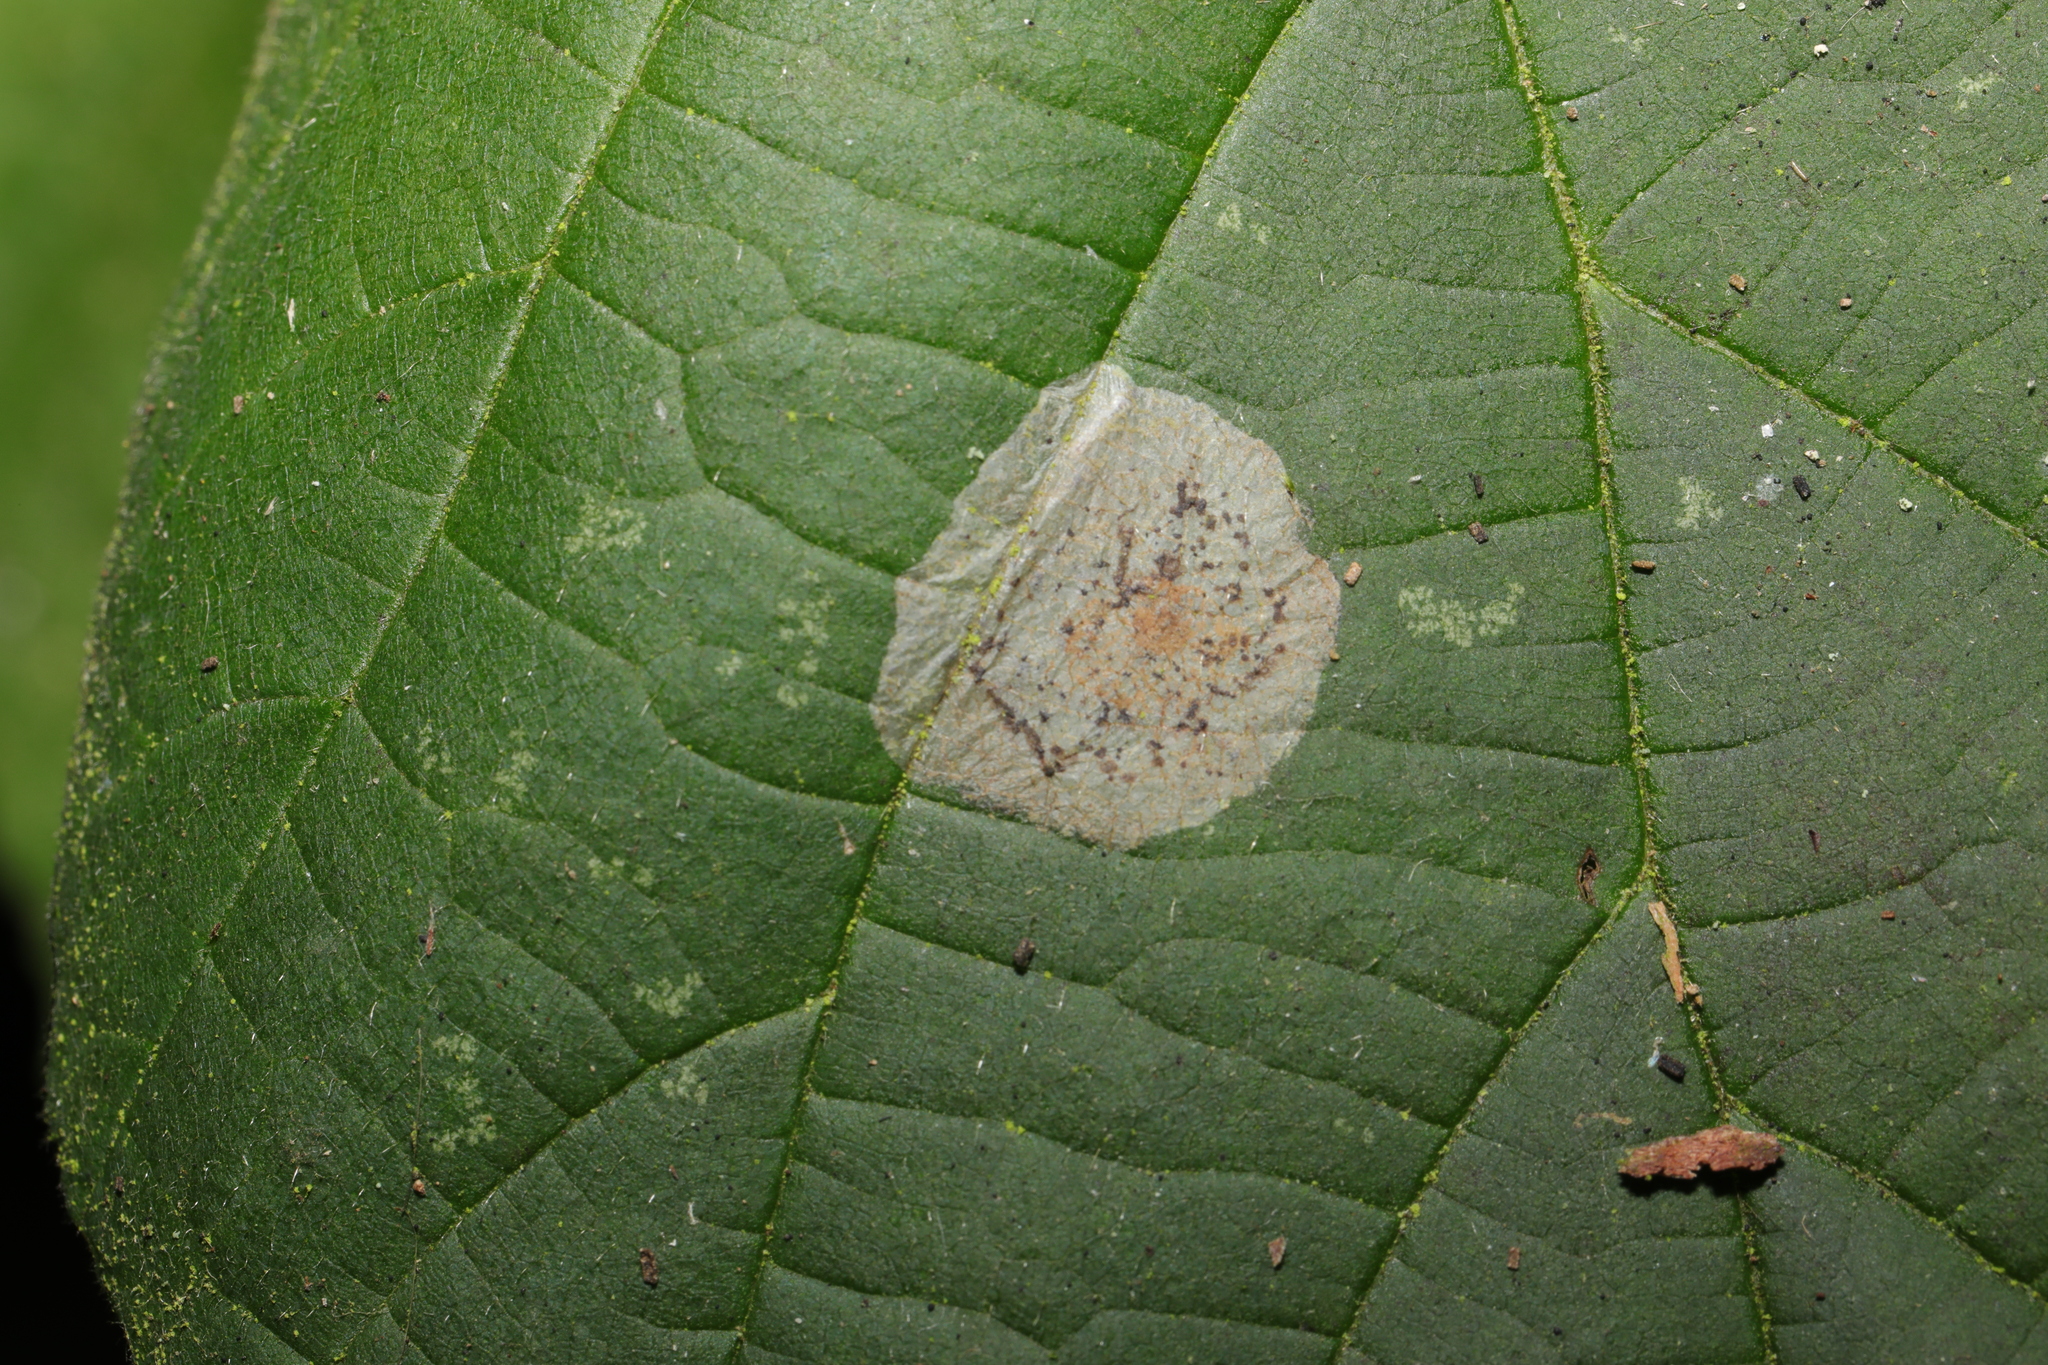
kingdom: Animalia
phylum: Arthropoda
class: Insecta
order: Lepidoptera
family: Gracillariidae
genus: Phyllonorycter
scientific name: Phyllonorycter coryli
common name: Nut-leaf blister moth
